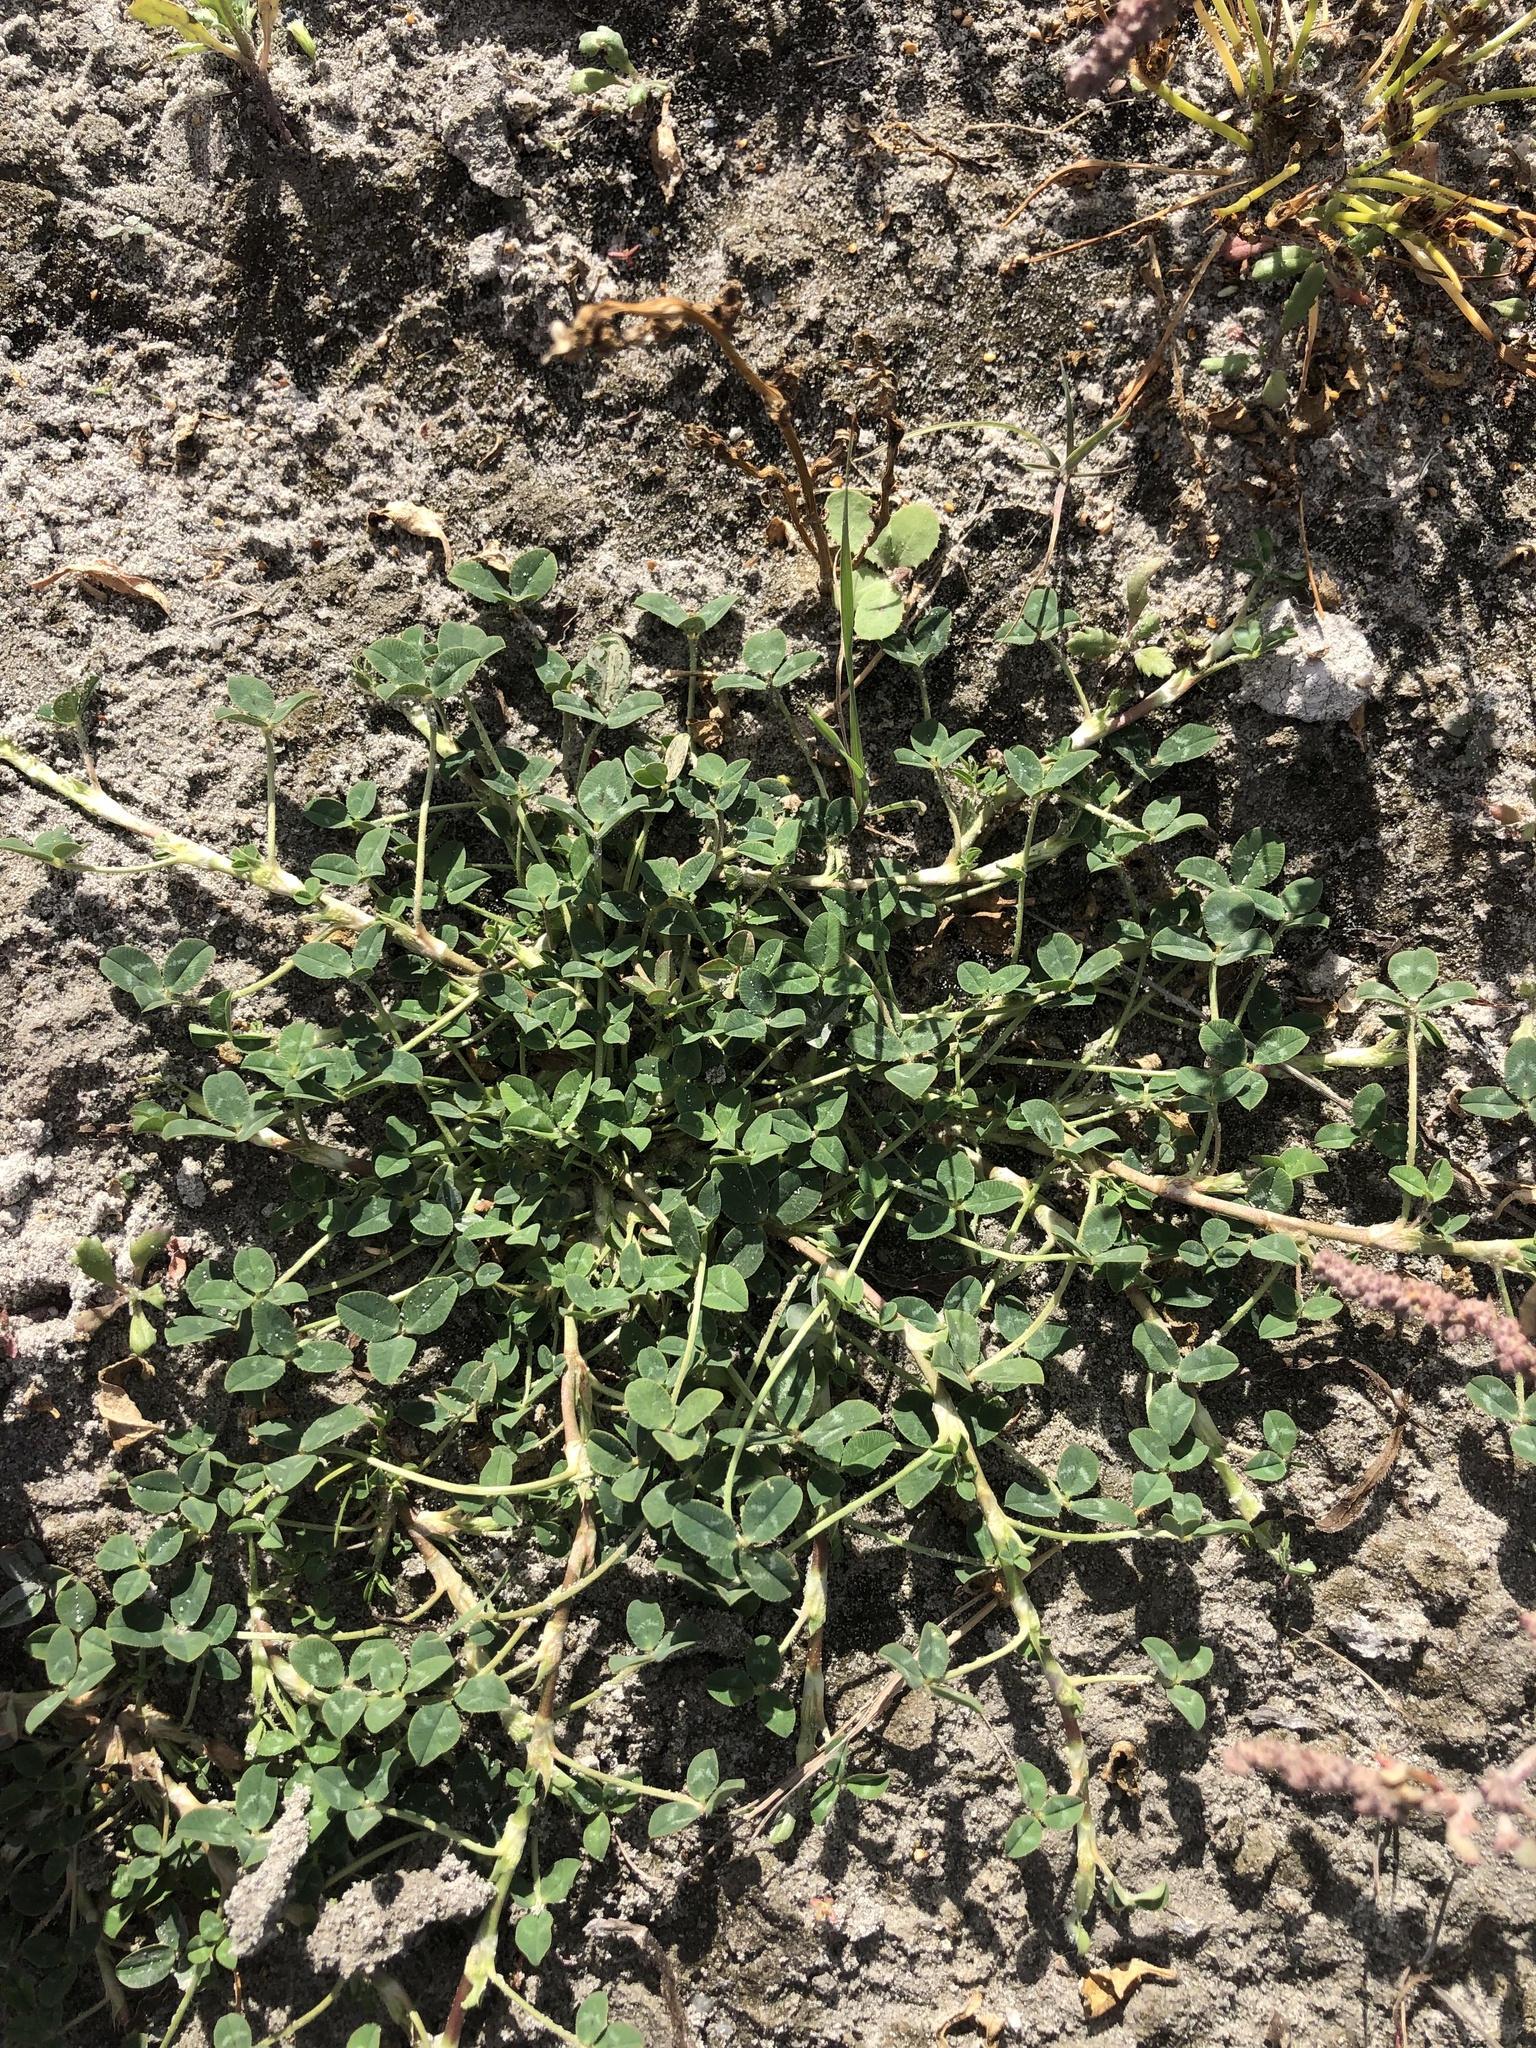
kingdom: Plantae
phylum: Tracheophyta
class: Magnoliopsida
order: Fabales
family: Fabaceae
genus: Trifolium
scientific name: Trifolium fragiferum
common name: Strawberry clover
